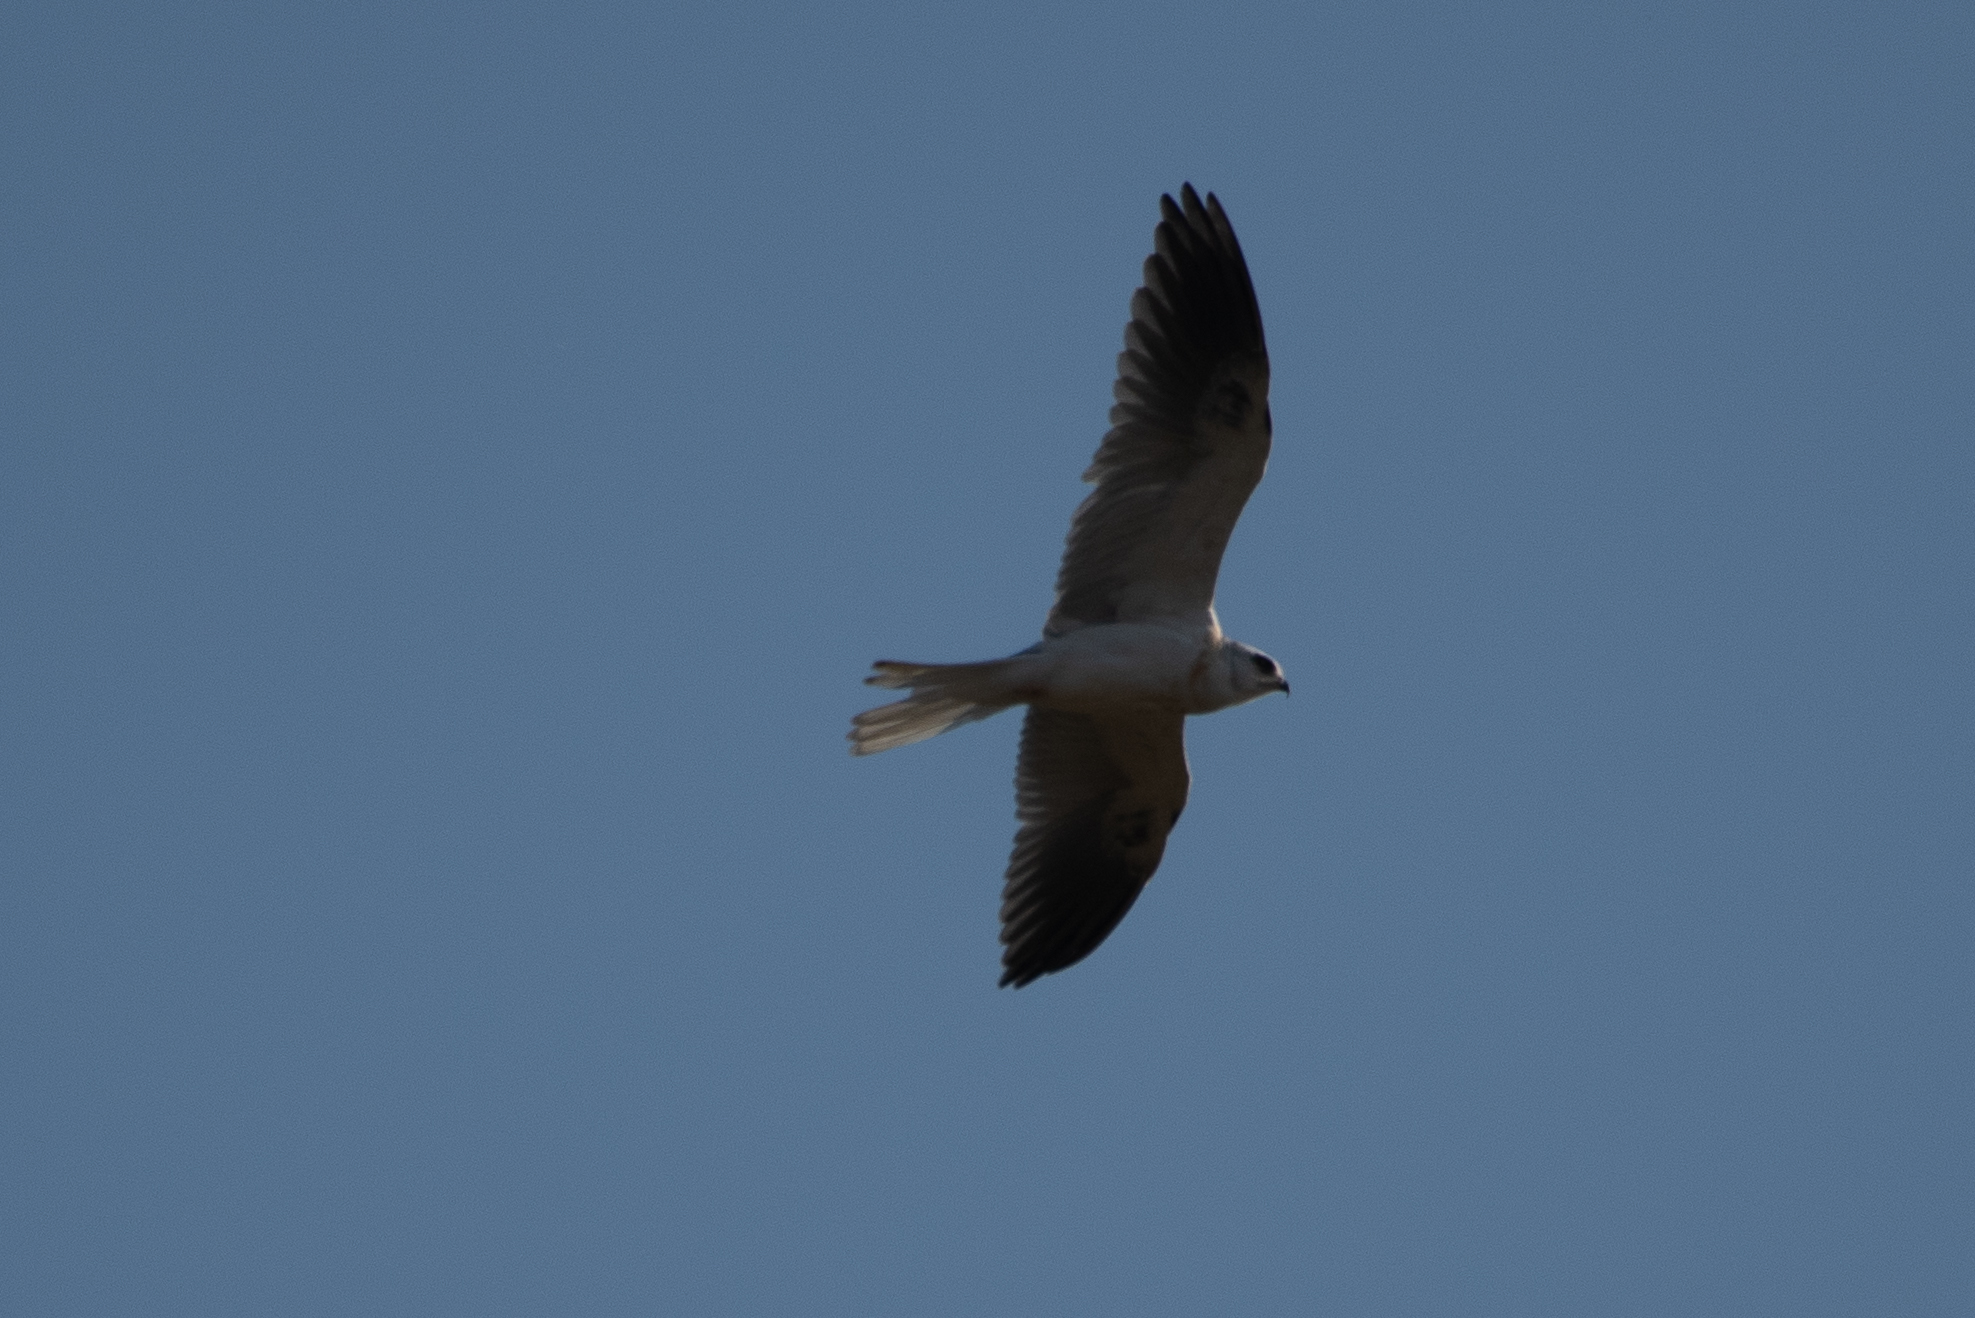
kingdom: Animalia
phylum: Chordata
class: Aves
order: Accipitriformes
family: Accipitridae
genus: Elanus
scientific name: Elanus leucurus
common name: White-tailed kite
